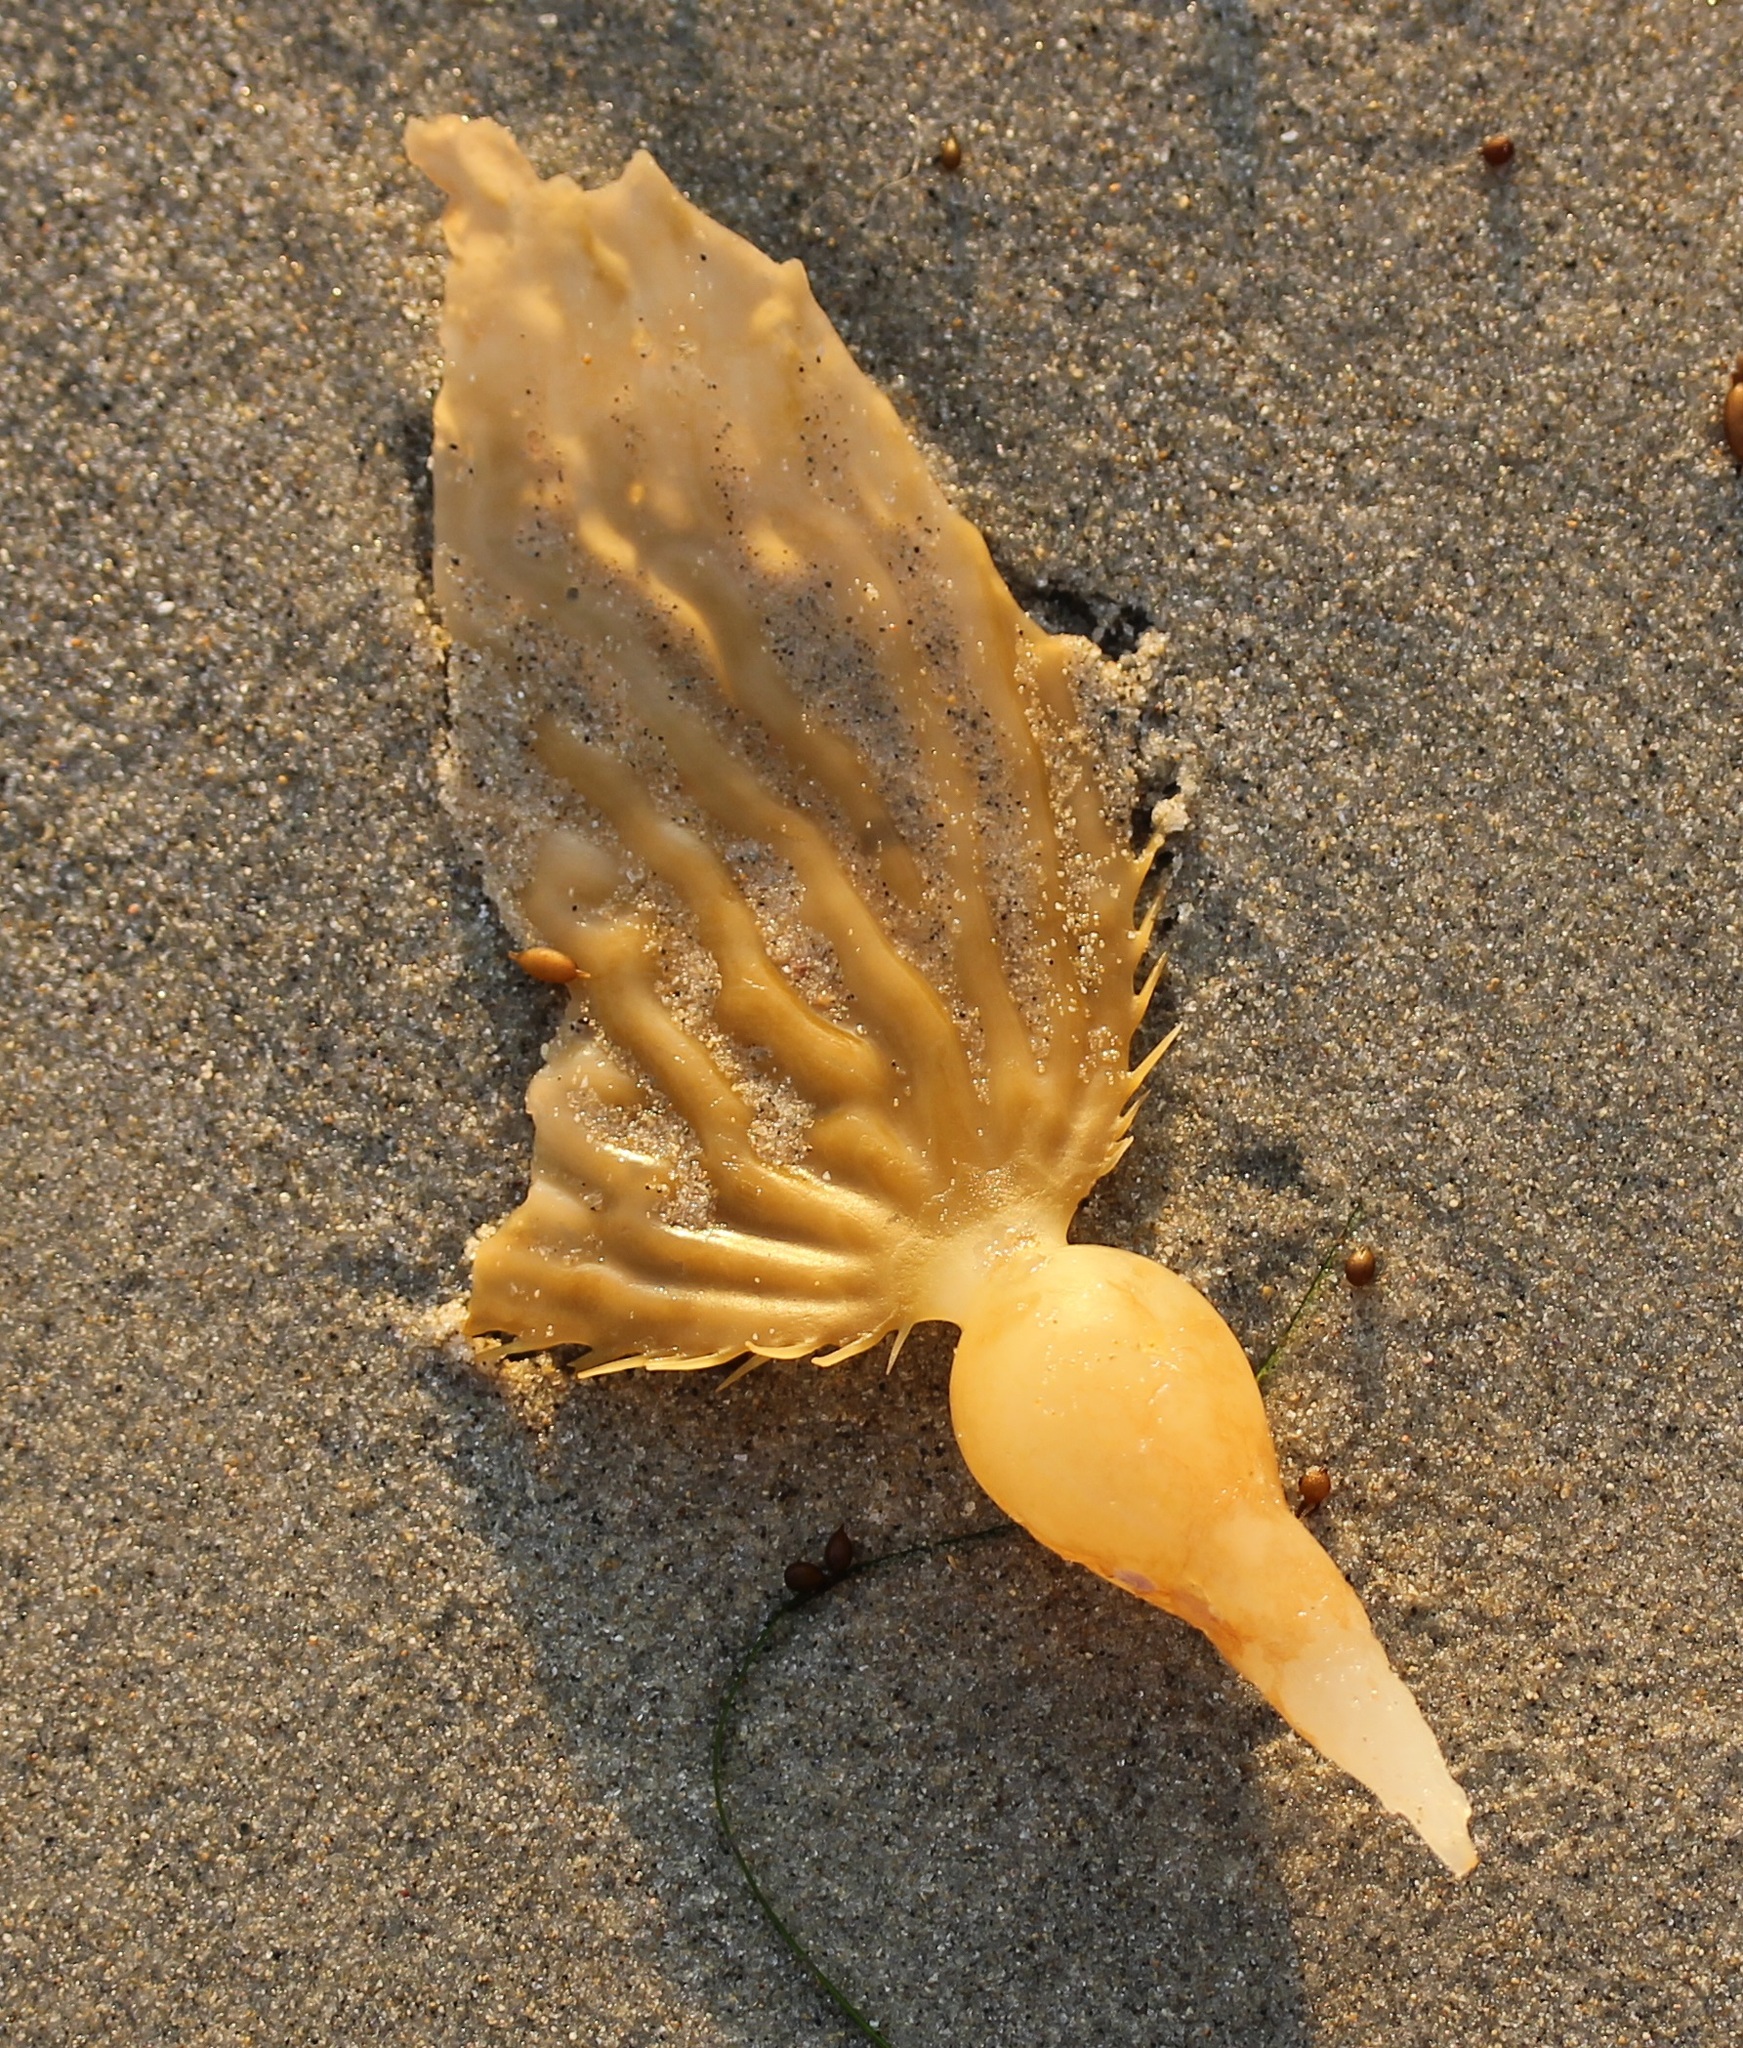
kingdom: Chromista
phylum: Ochrophyta
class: Phaeophyceae
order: Laminariales
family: Laminariaceae
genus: Macrocystis
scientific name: Macrocystis pyrifera
